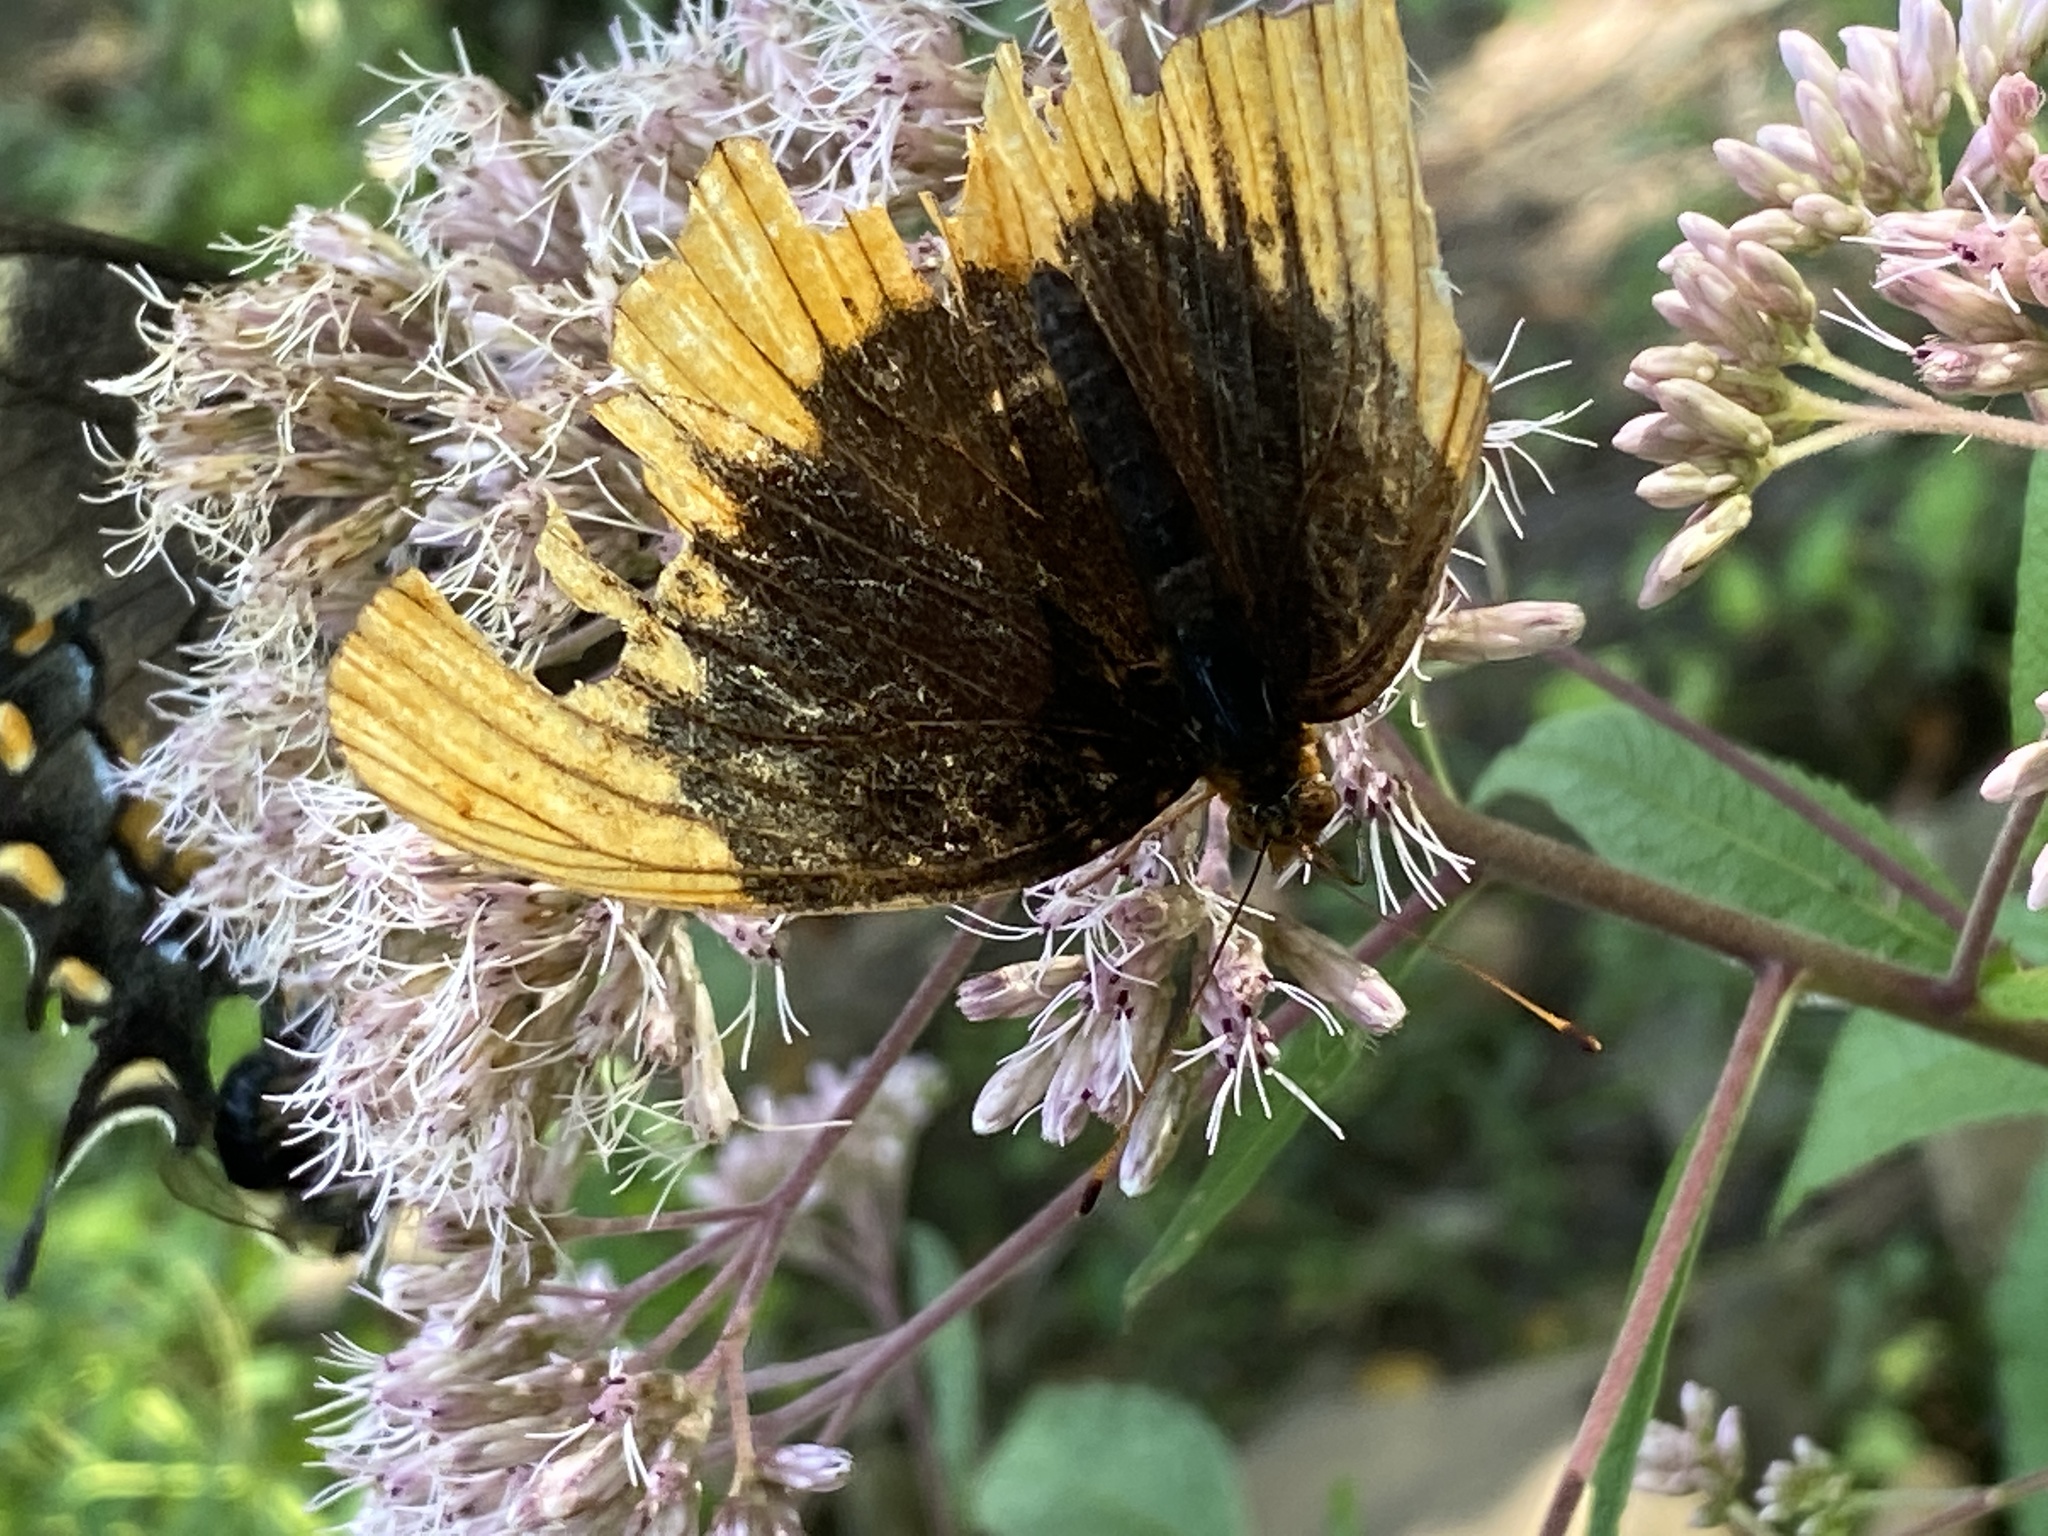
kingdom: Animalia
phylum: Arthropoda
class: Insecta
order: Lepidoptera
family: Nymphalidae
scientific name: Nymphalidae
